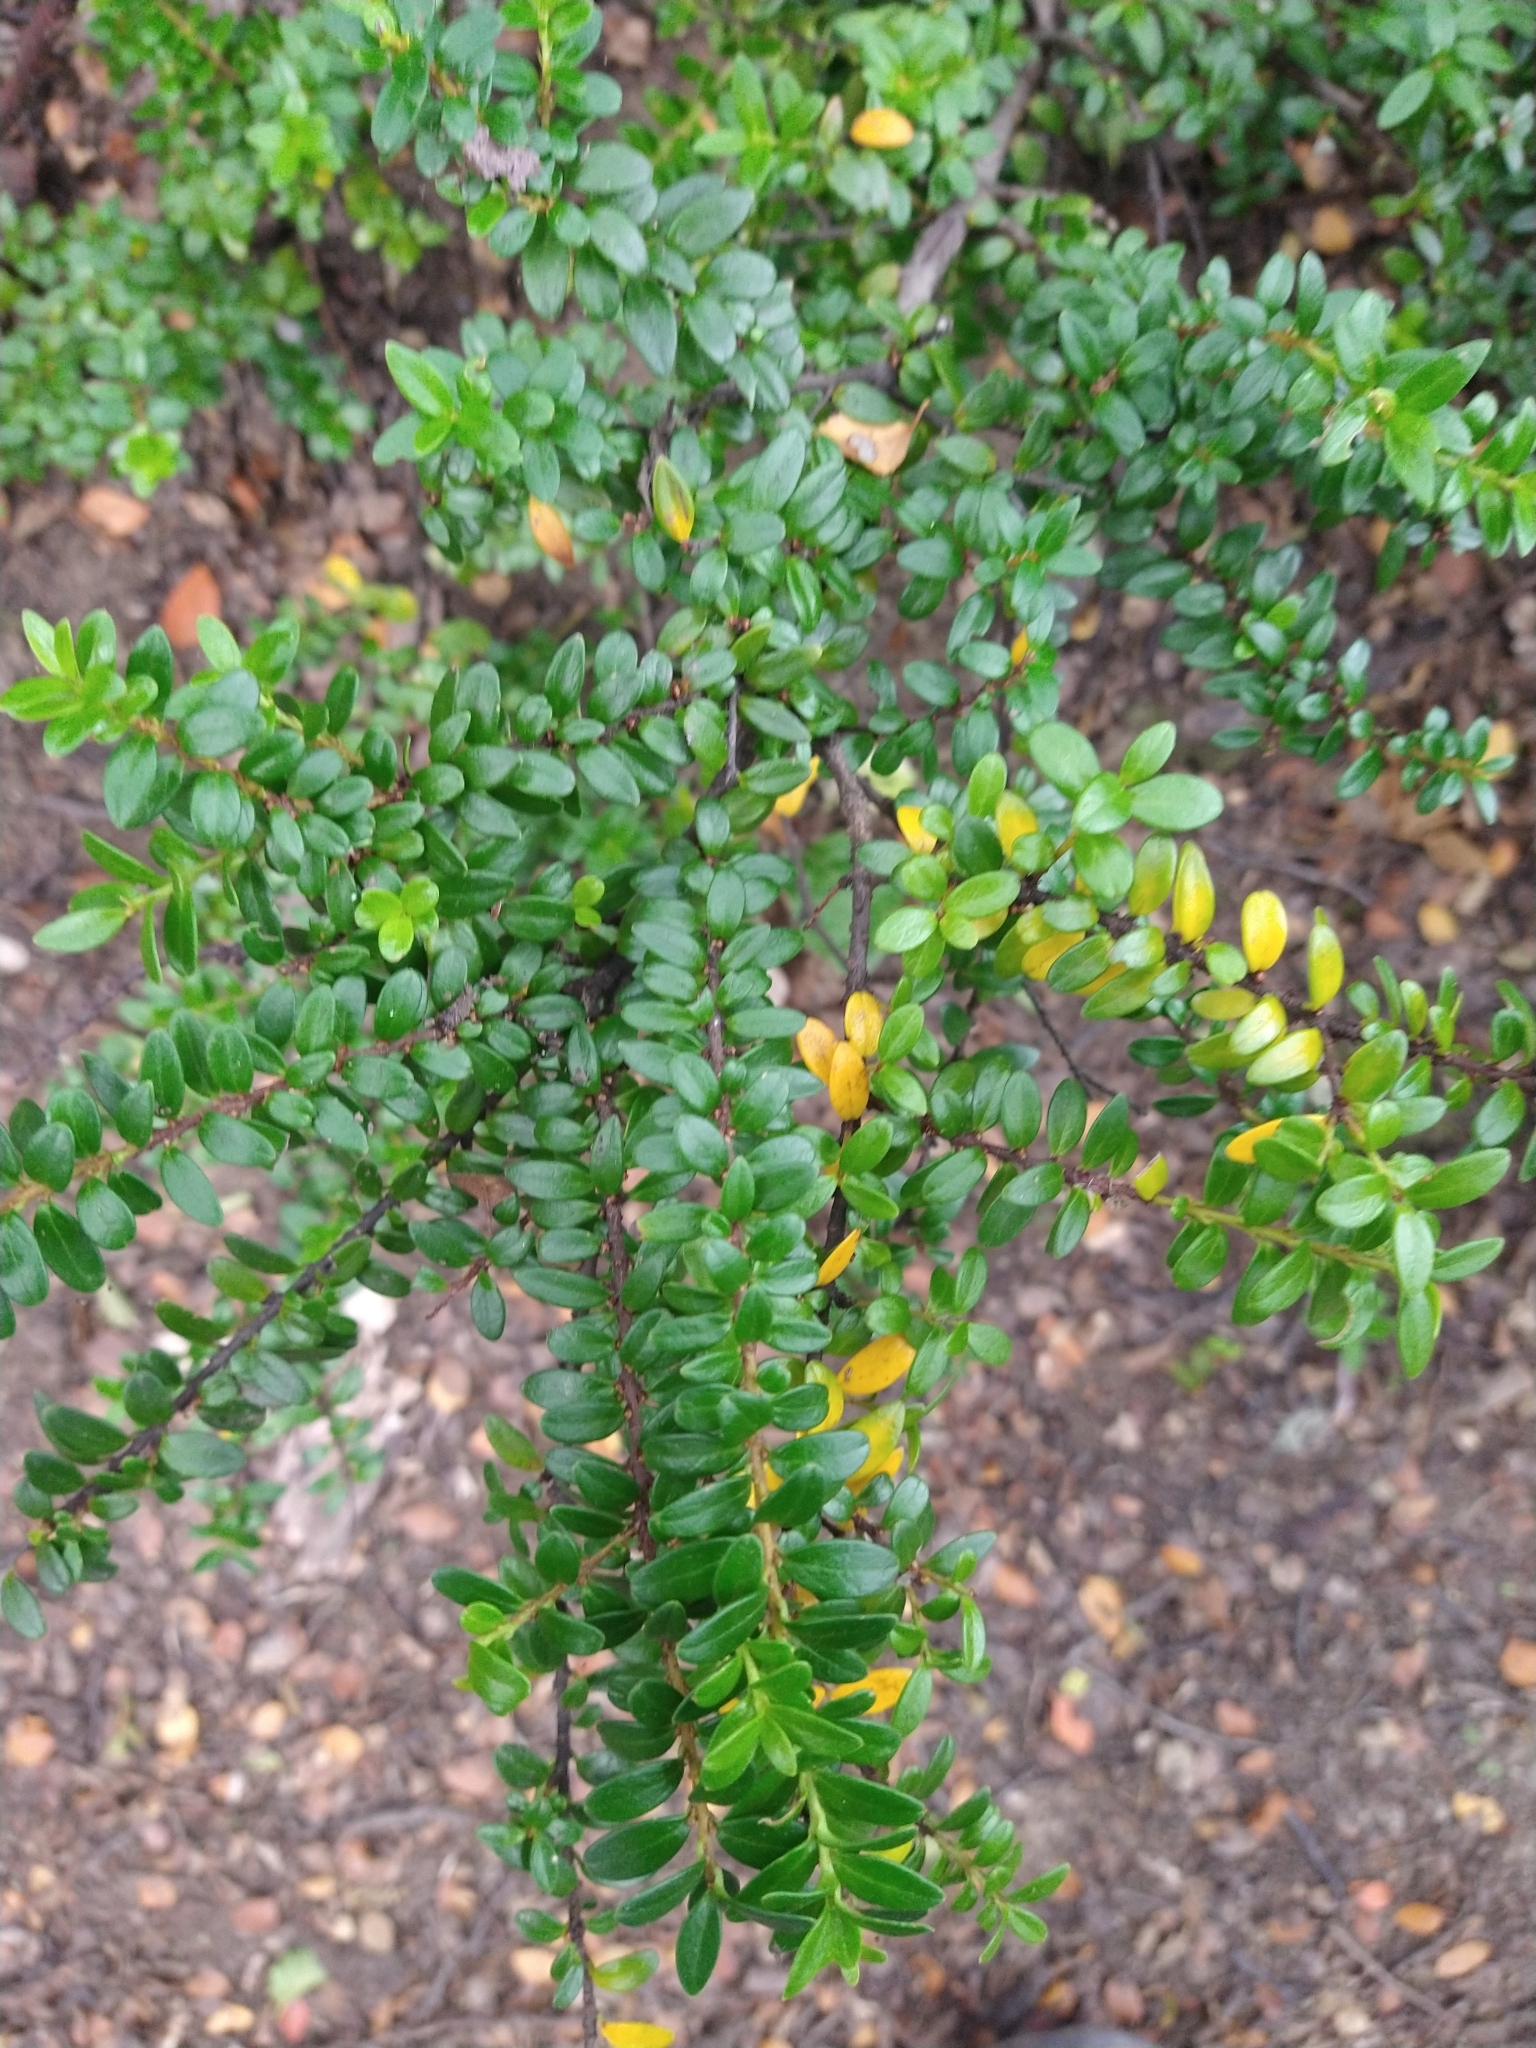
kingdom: Plantae
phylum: Tracheophyta
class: Magnoliopsida
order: Celastrales
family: Celastraceae
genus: Maytenus
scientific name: Maytenus disticha
